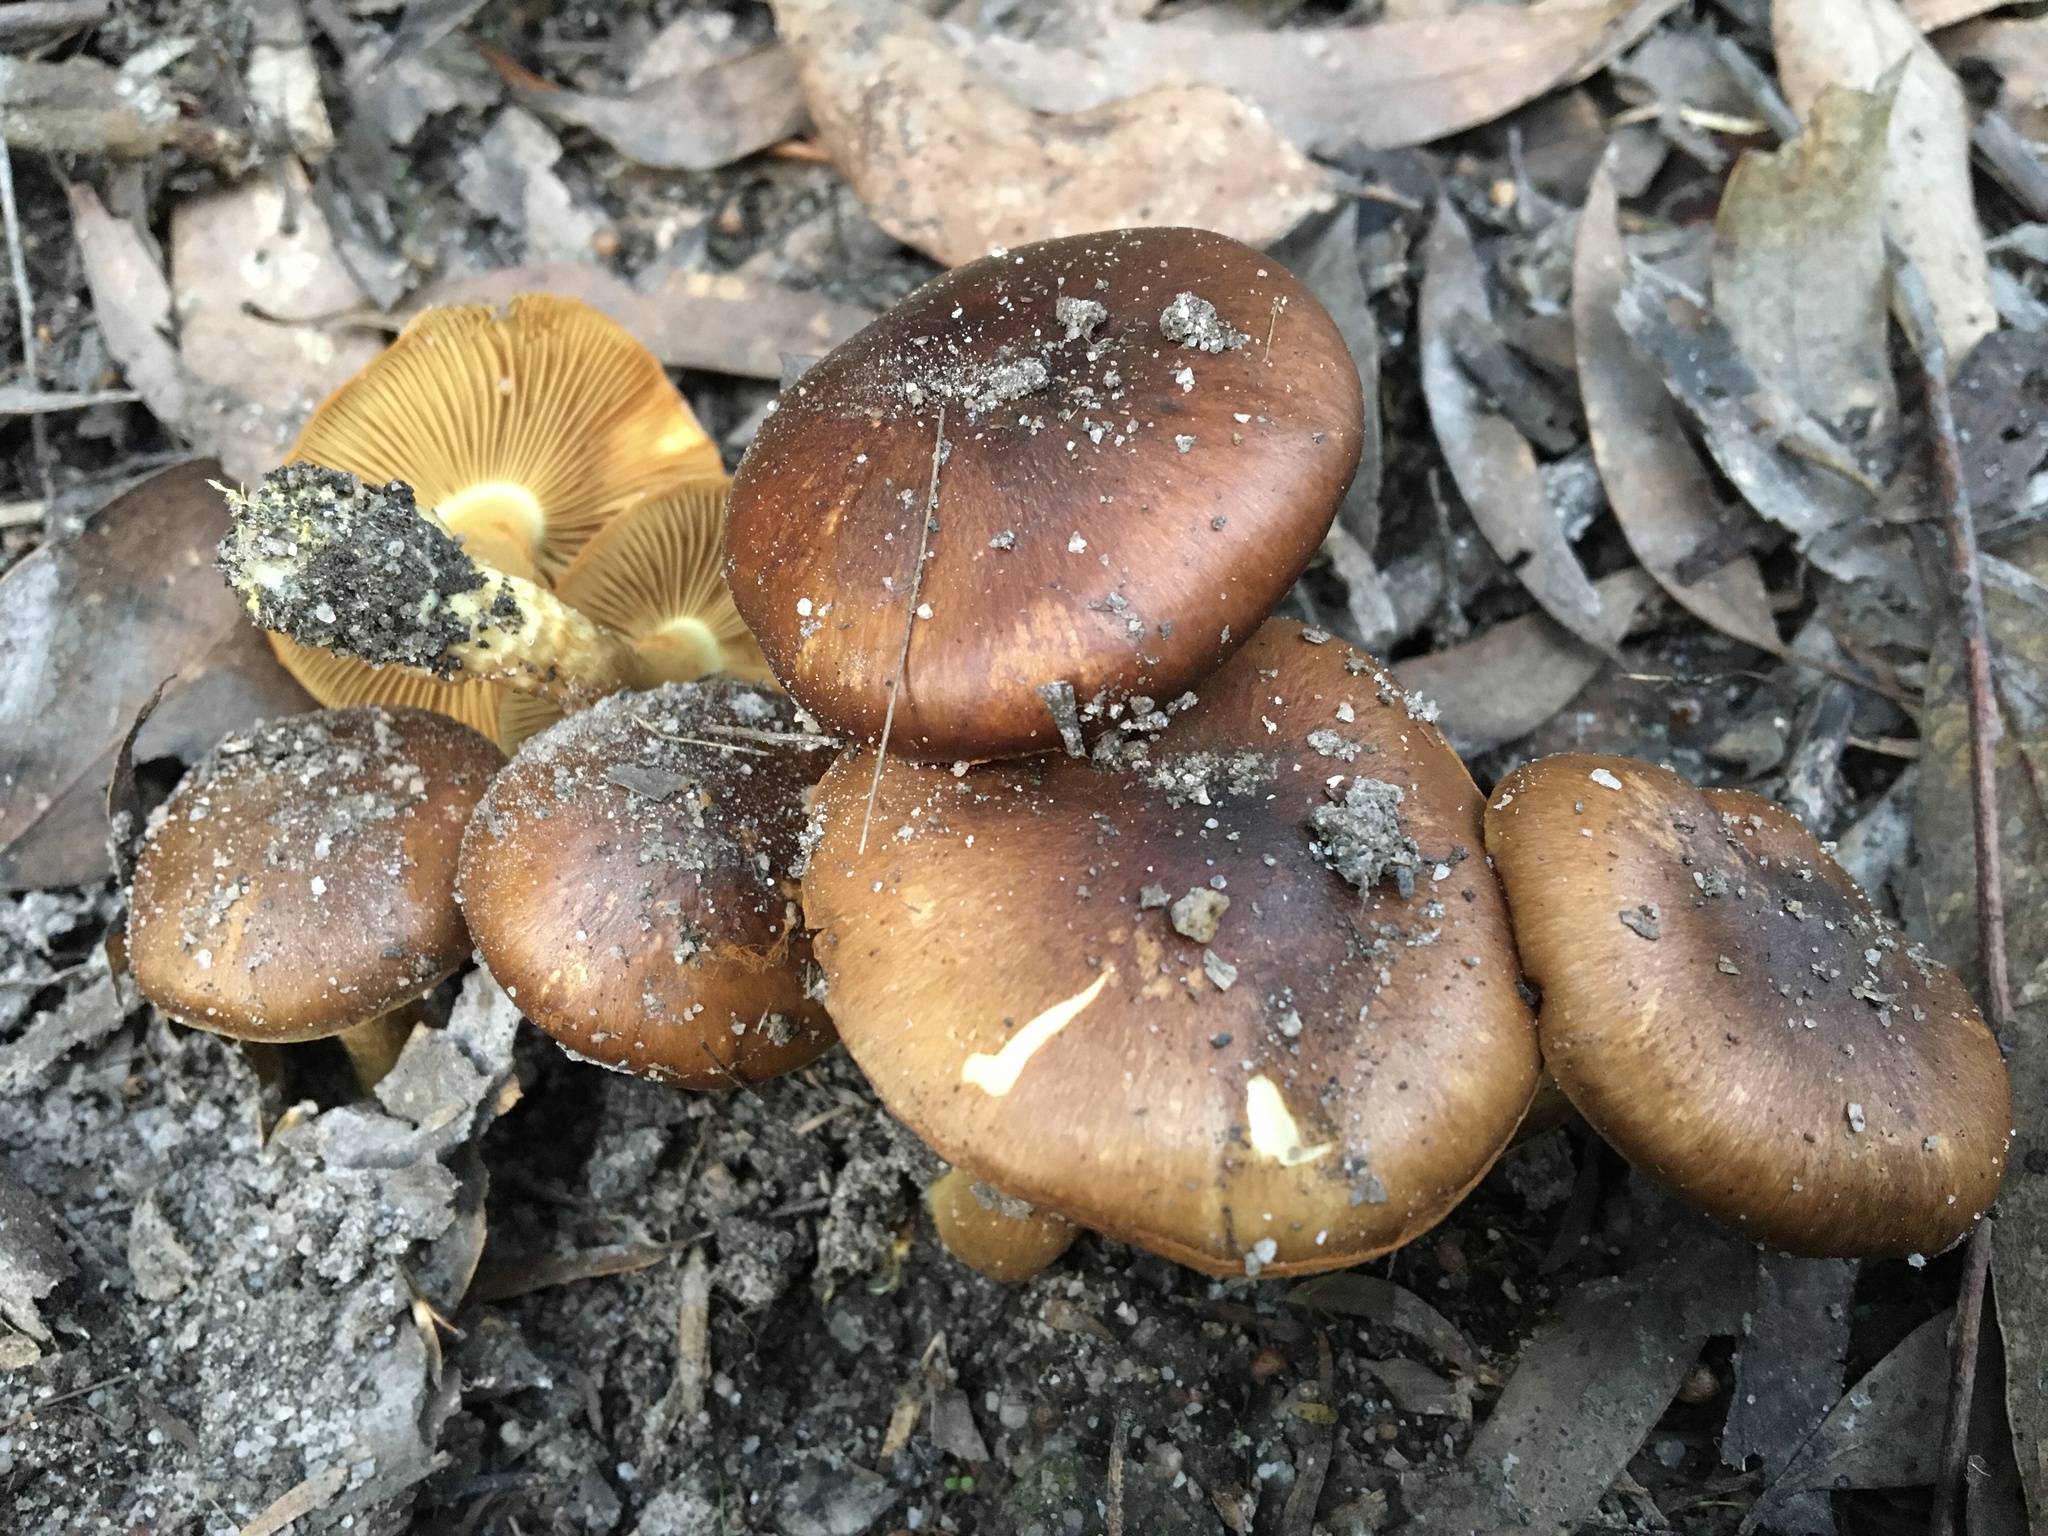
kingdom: Fungi
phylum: Basidiomycota
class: Agaricomycetes
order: Agaricales
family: Cortinariaceae
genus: Cortinarius
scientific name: Cortinarius clelandii
